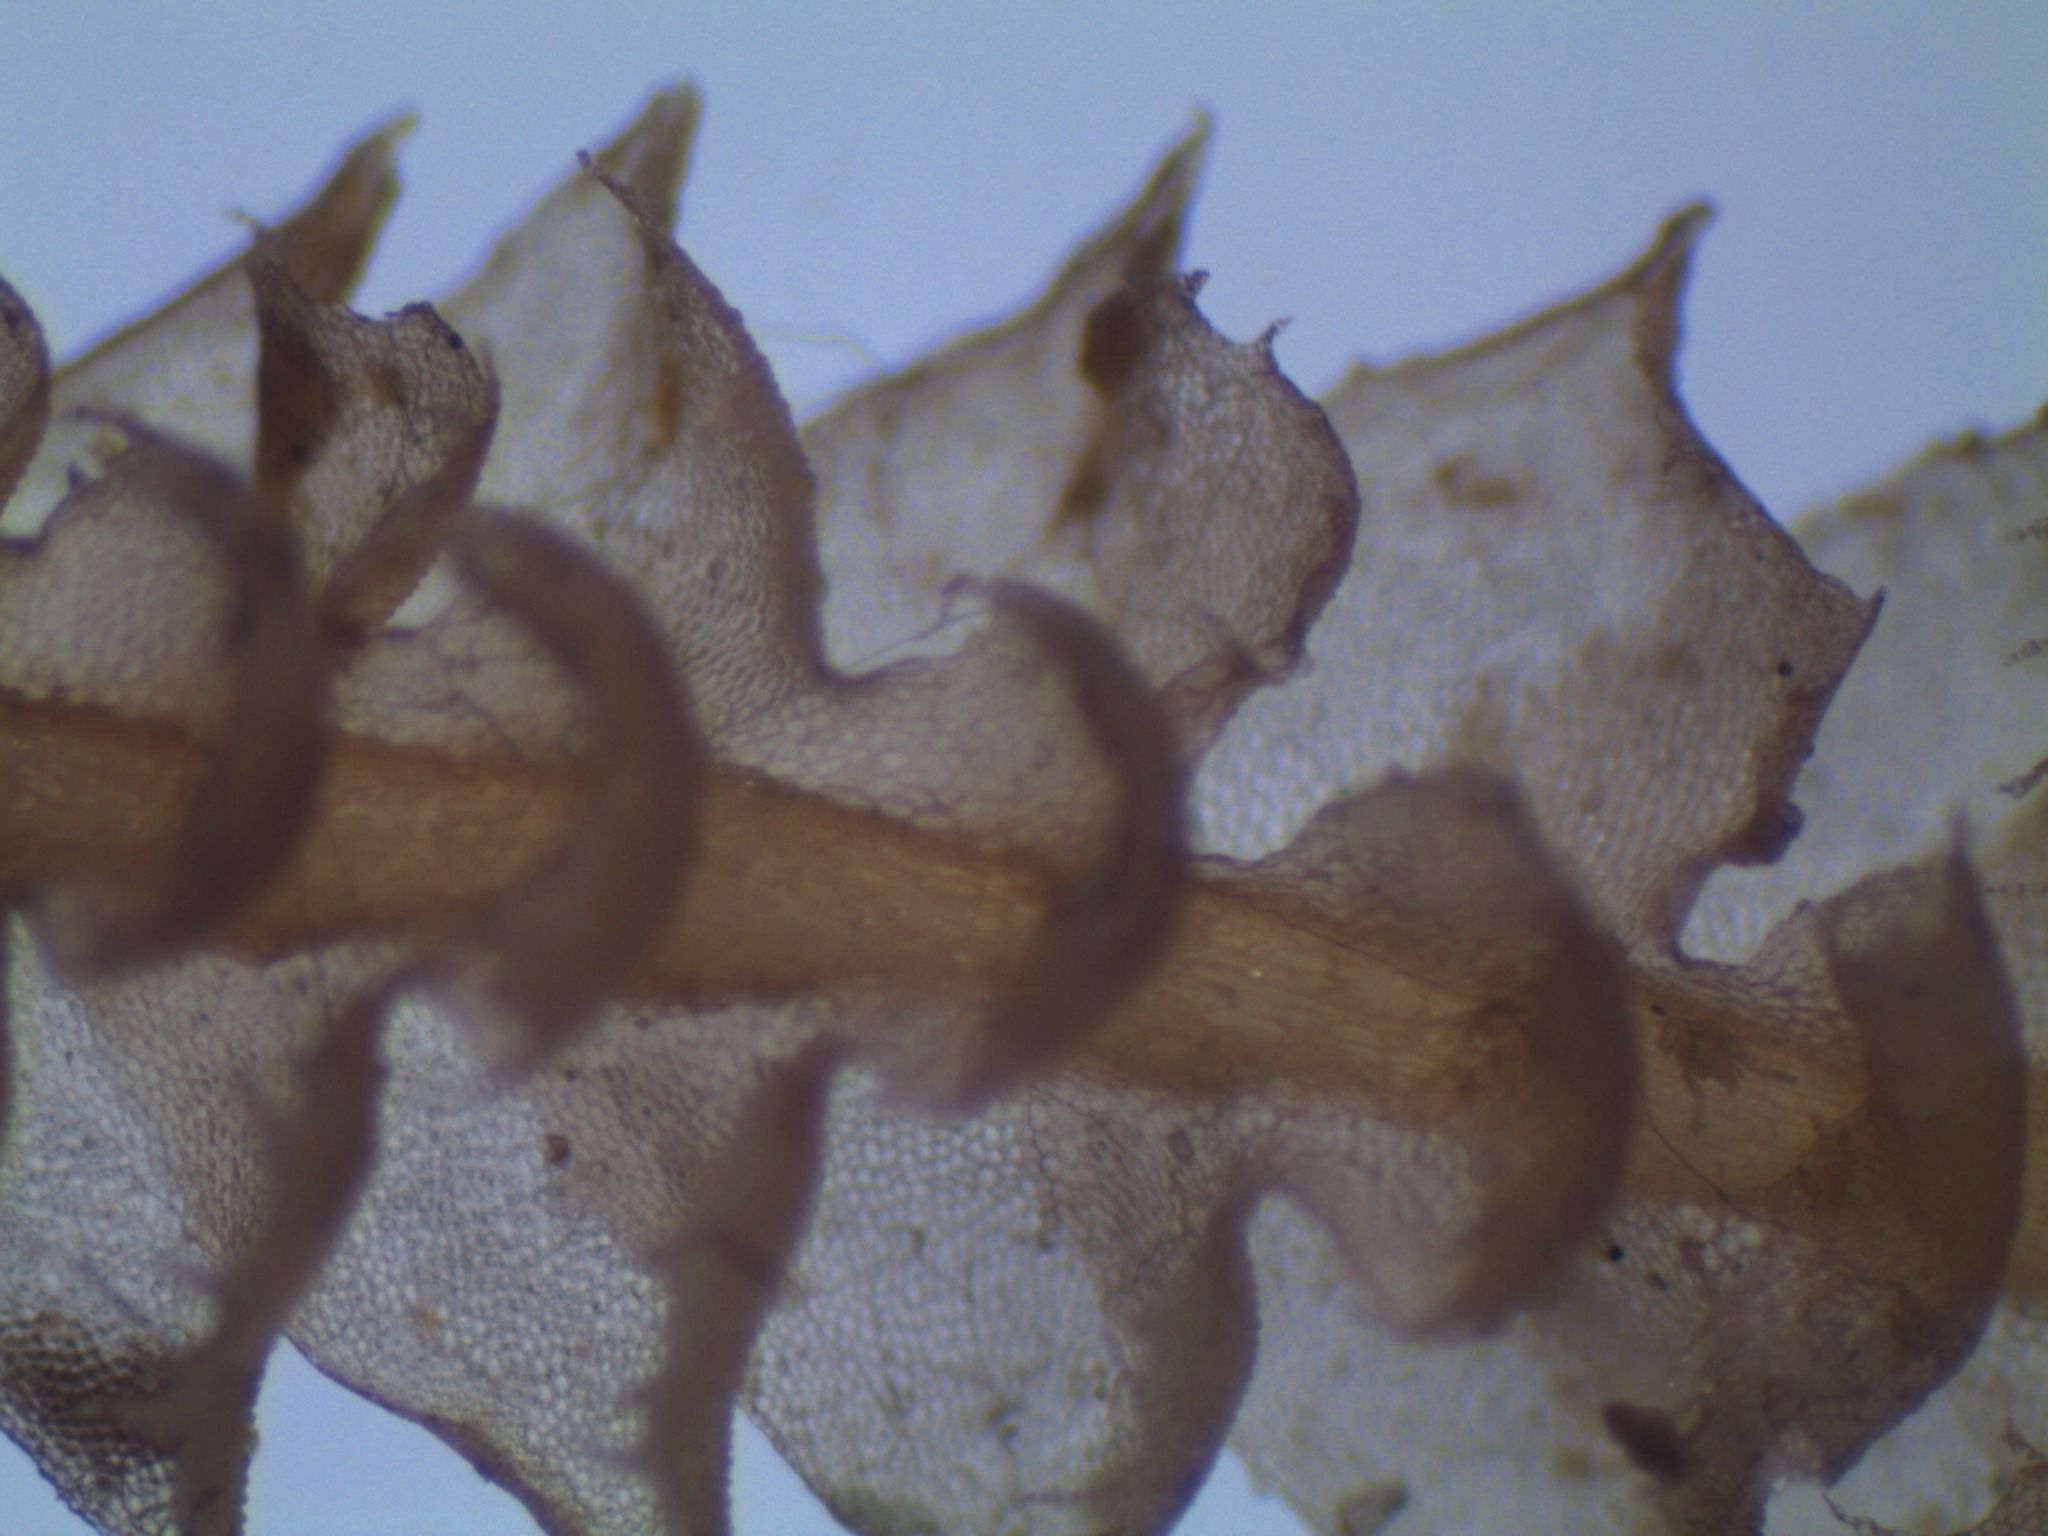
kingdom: Plantae
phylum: Marchantiophyta
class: Jungermanniopsida
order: Jungermanniales
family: Lophocoleaceae
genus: Cryptolophocolea
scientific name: Cryptolophocolea mitteniana
